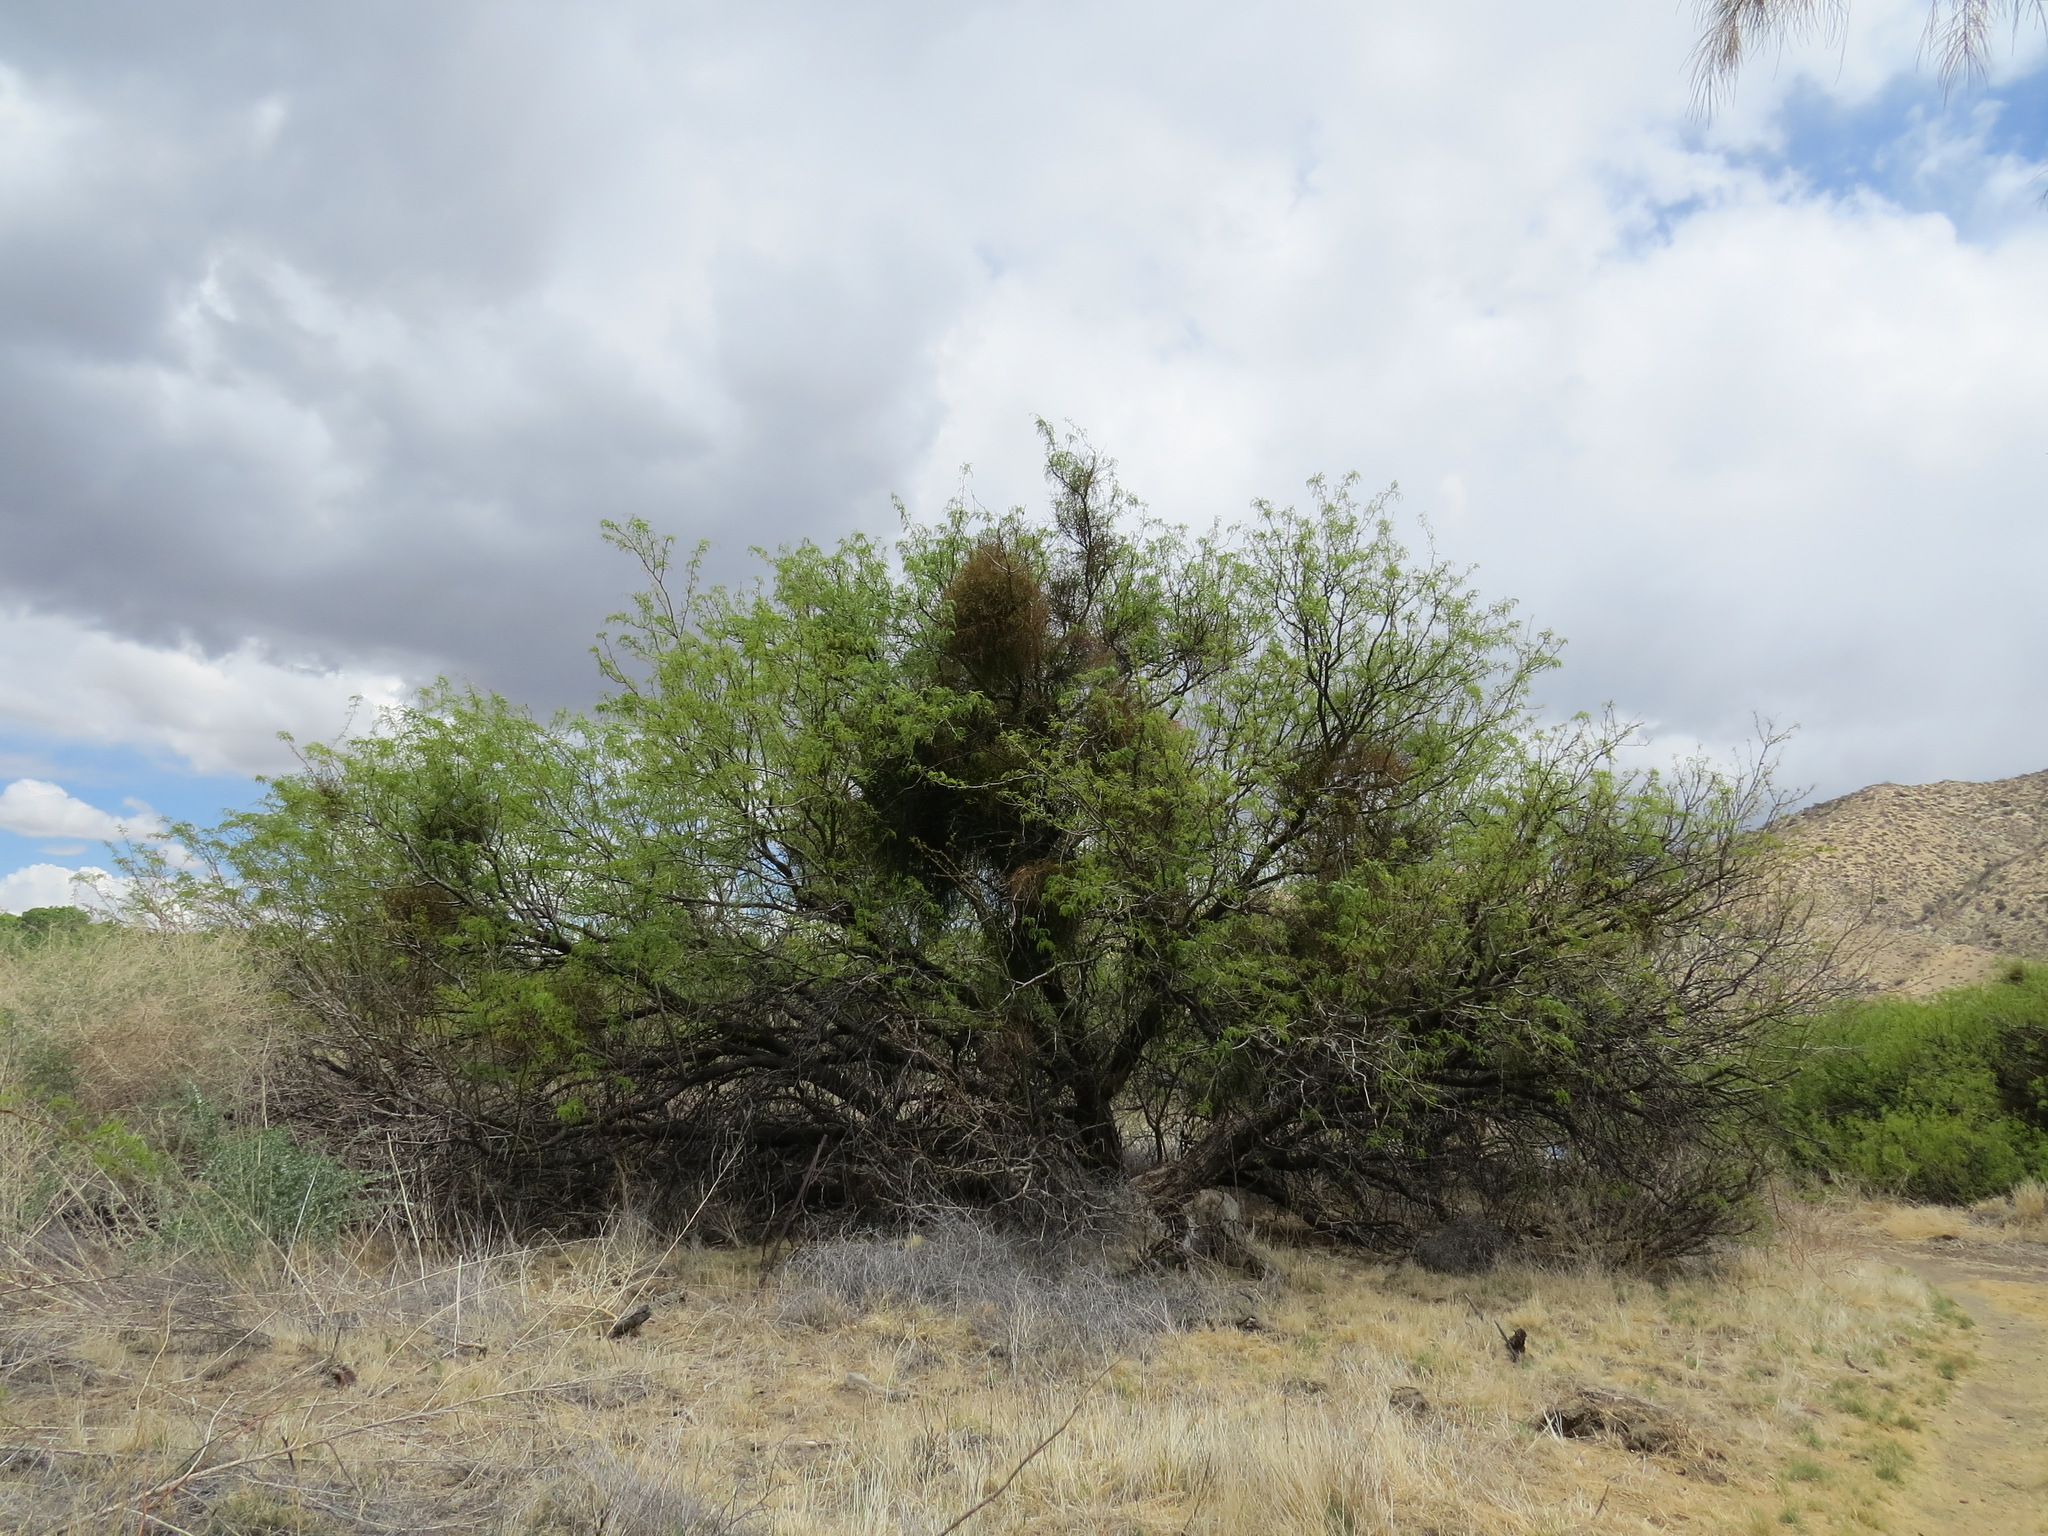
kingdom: Plantae
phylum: Tracheophyta
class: Magnoliopsida
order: Santalales
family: Viscaceae
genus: Phoradendron
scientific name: Phoradendron californicum
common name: Acacia mistletoe
